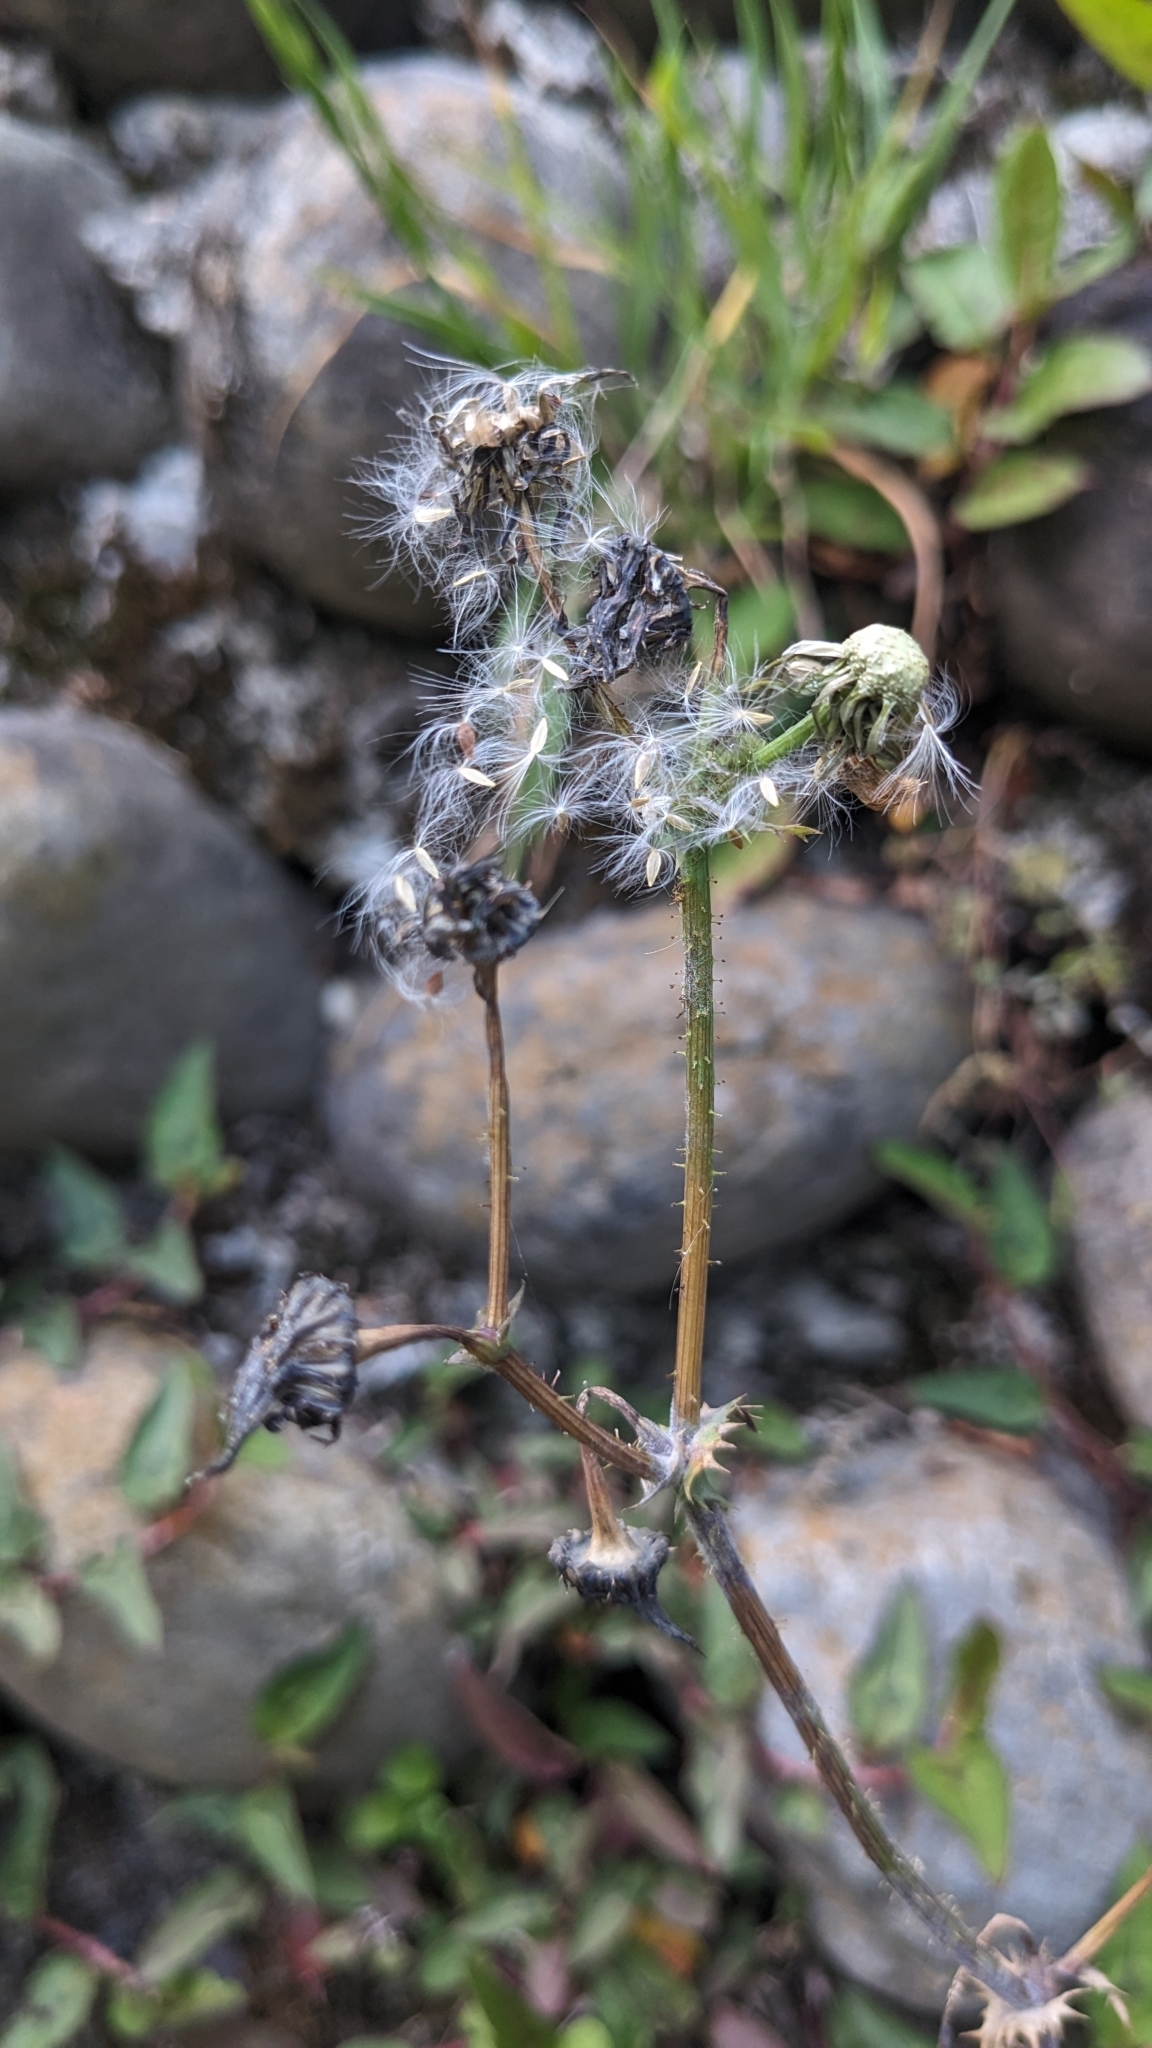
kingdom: Plantae
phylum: Tracheophyta
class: Magnoliopsida
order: Asterales
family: Asteraceae
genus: Sonchus
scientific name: Sonchus asper
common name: Prickly sow-thistle
